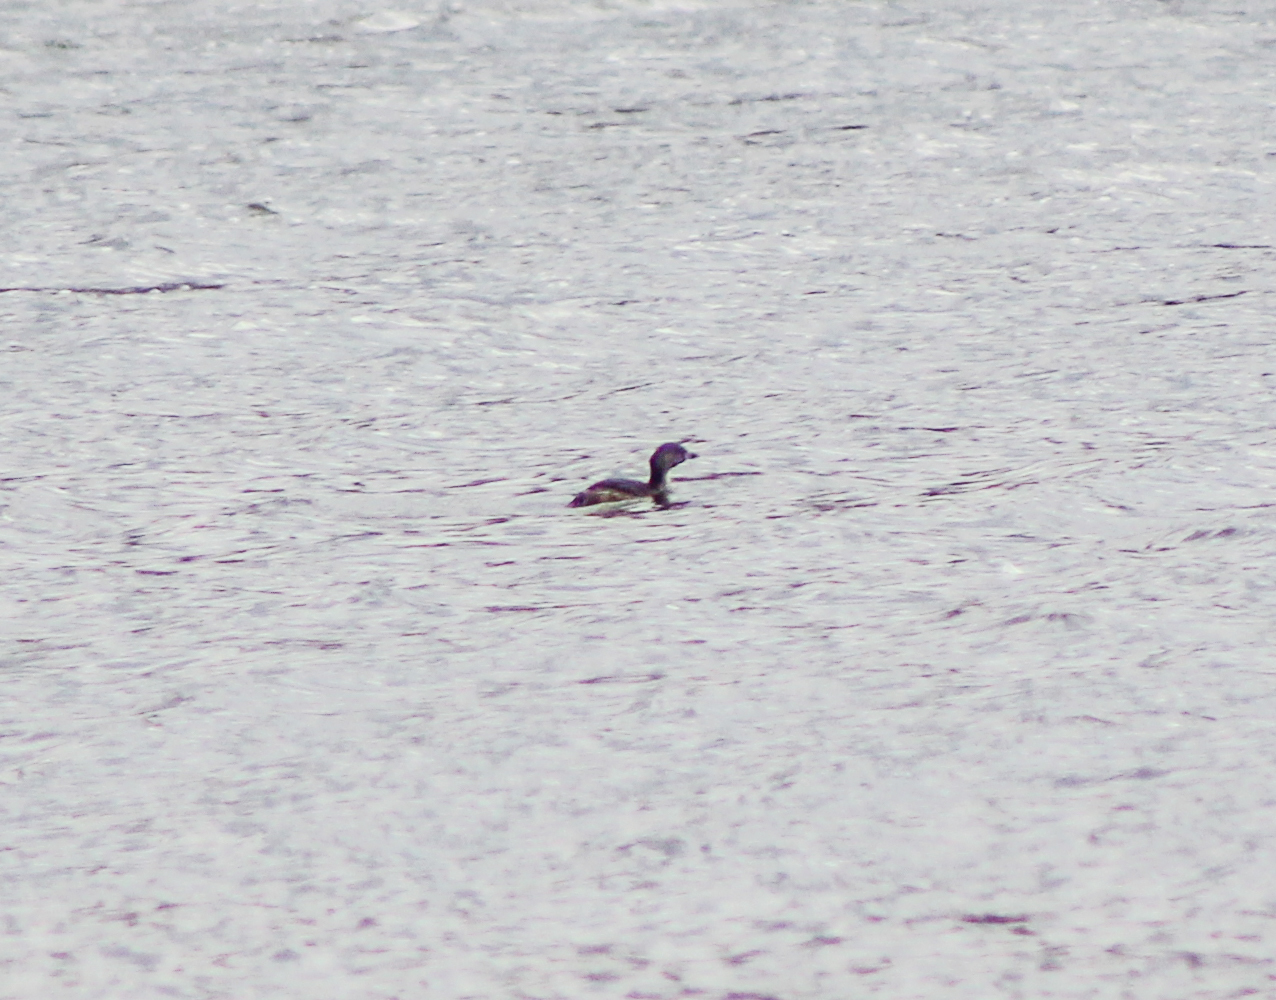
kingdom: Animalia
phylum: Chordata
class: Aves
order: Podicipediformes
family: Podicipedidae
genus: Podilymbus
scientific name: Podilymbus podiceps
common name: Pied-billed grebe
